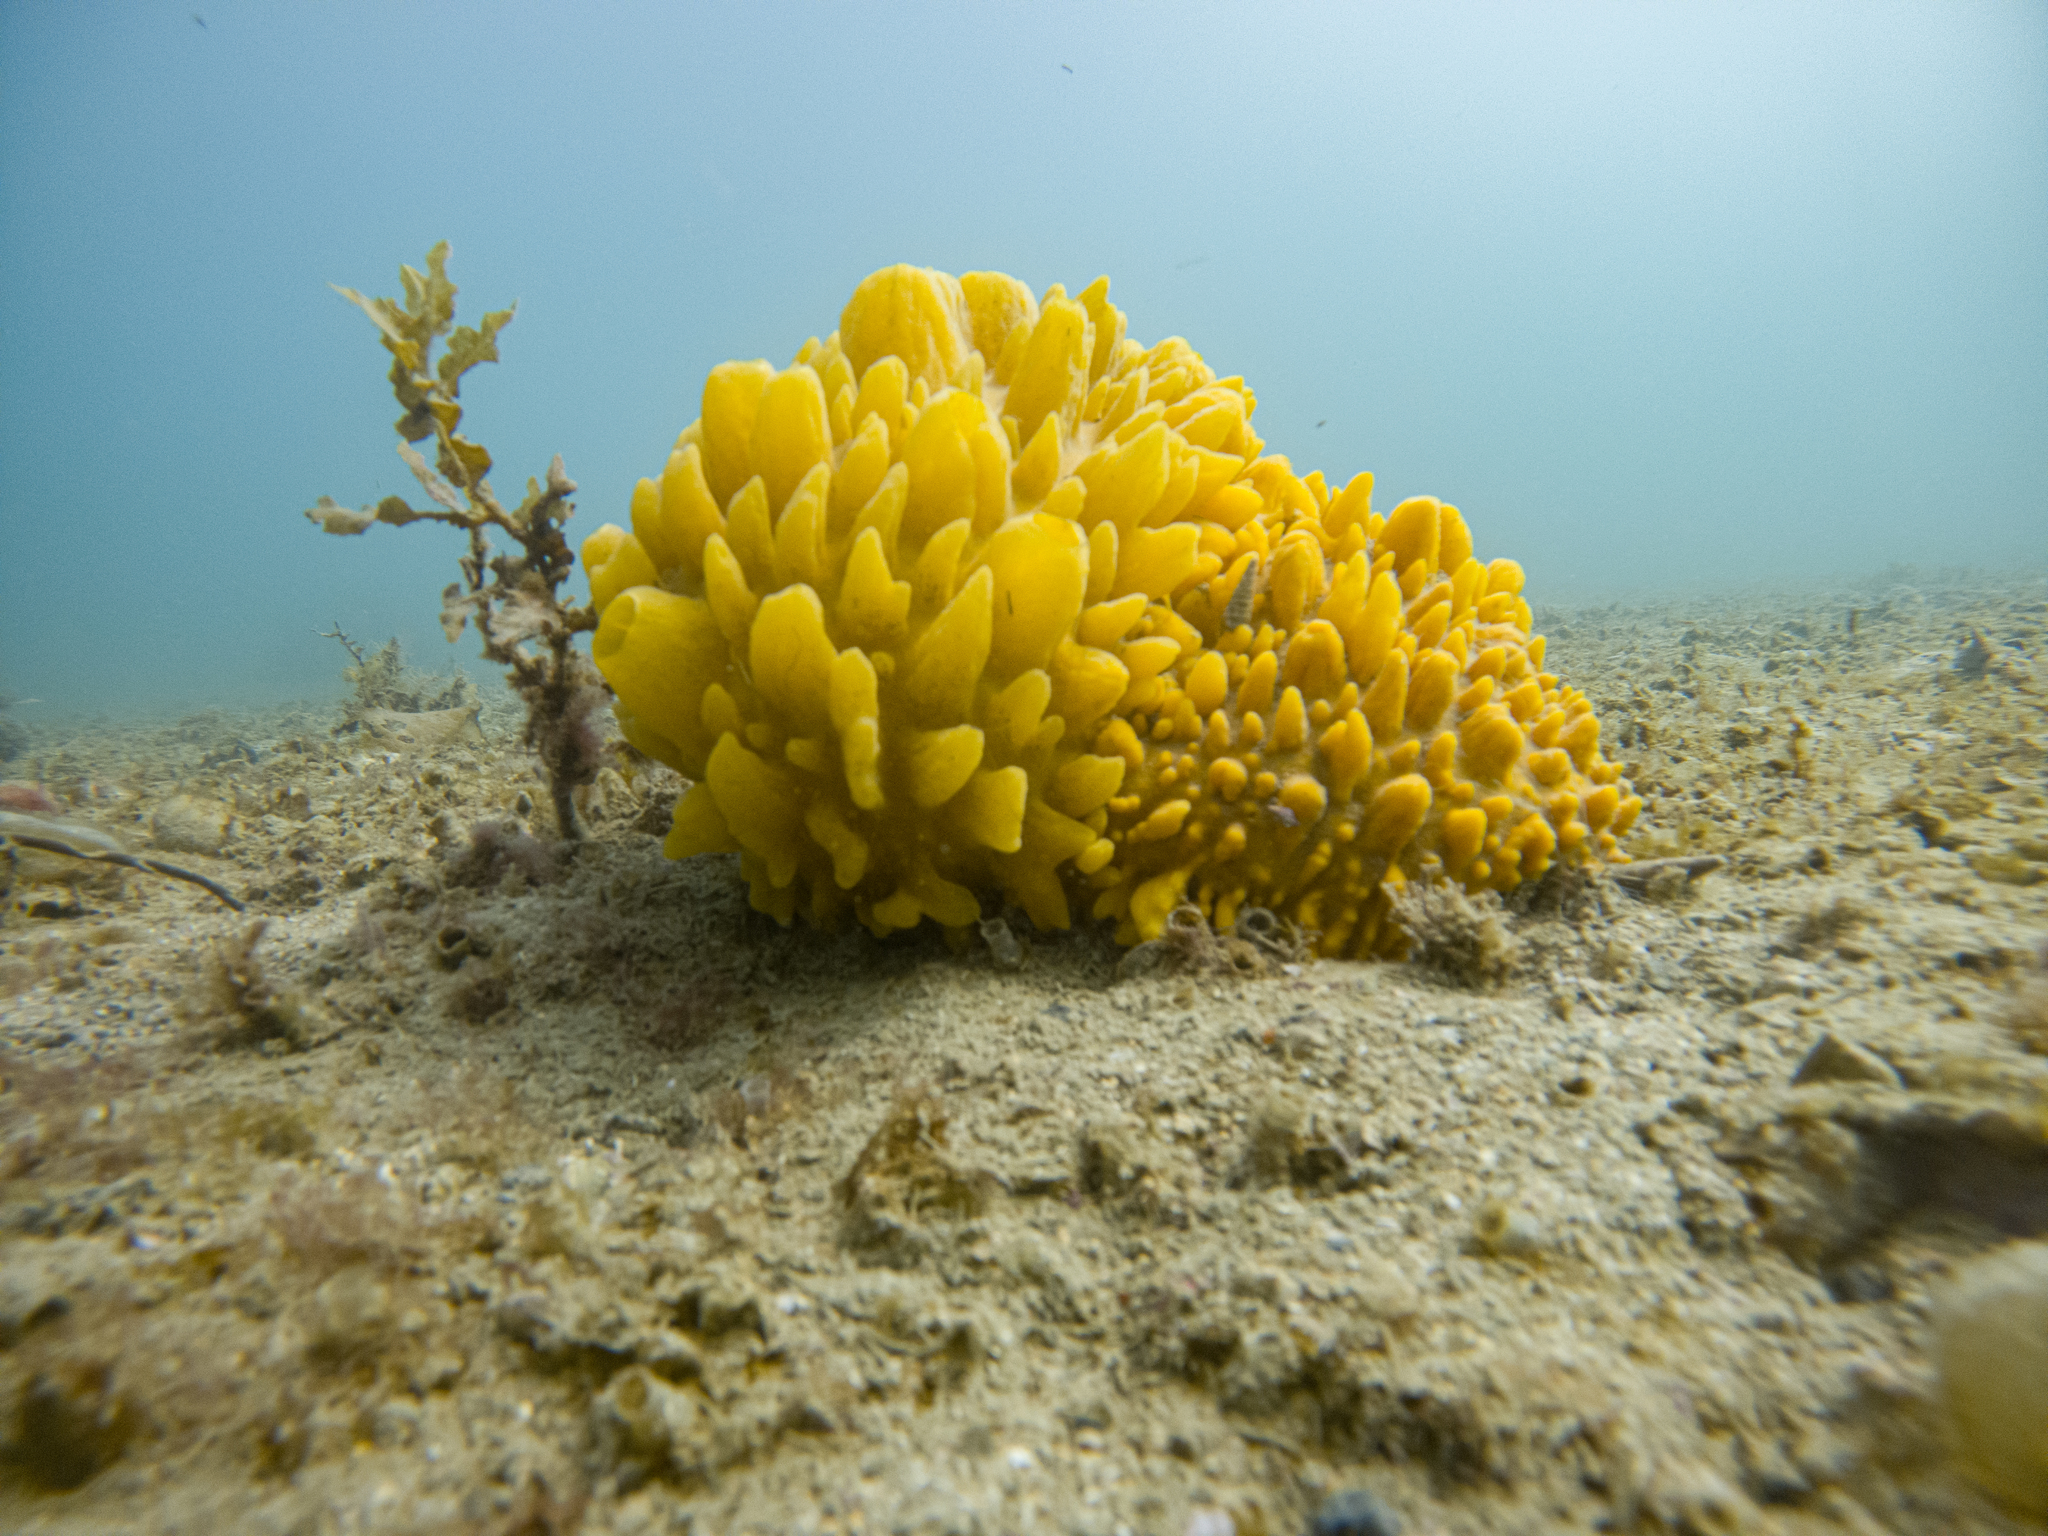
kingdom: Animalia
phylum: Porifera
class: Demospongiae
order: Polymastiida
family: Polymastiidae
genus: Polymastia
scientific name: Polymastia crocea
